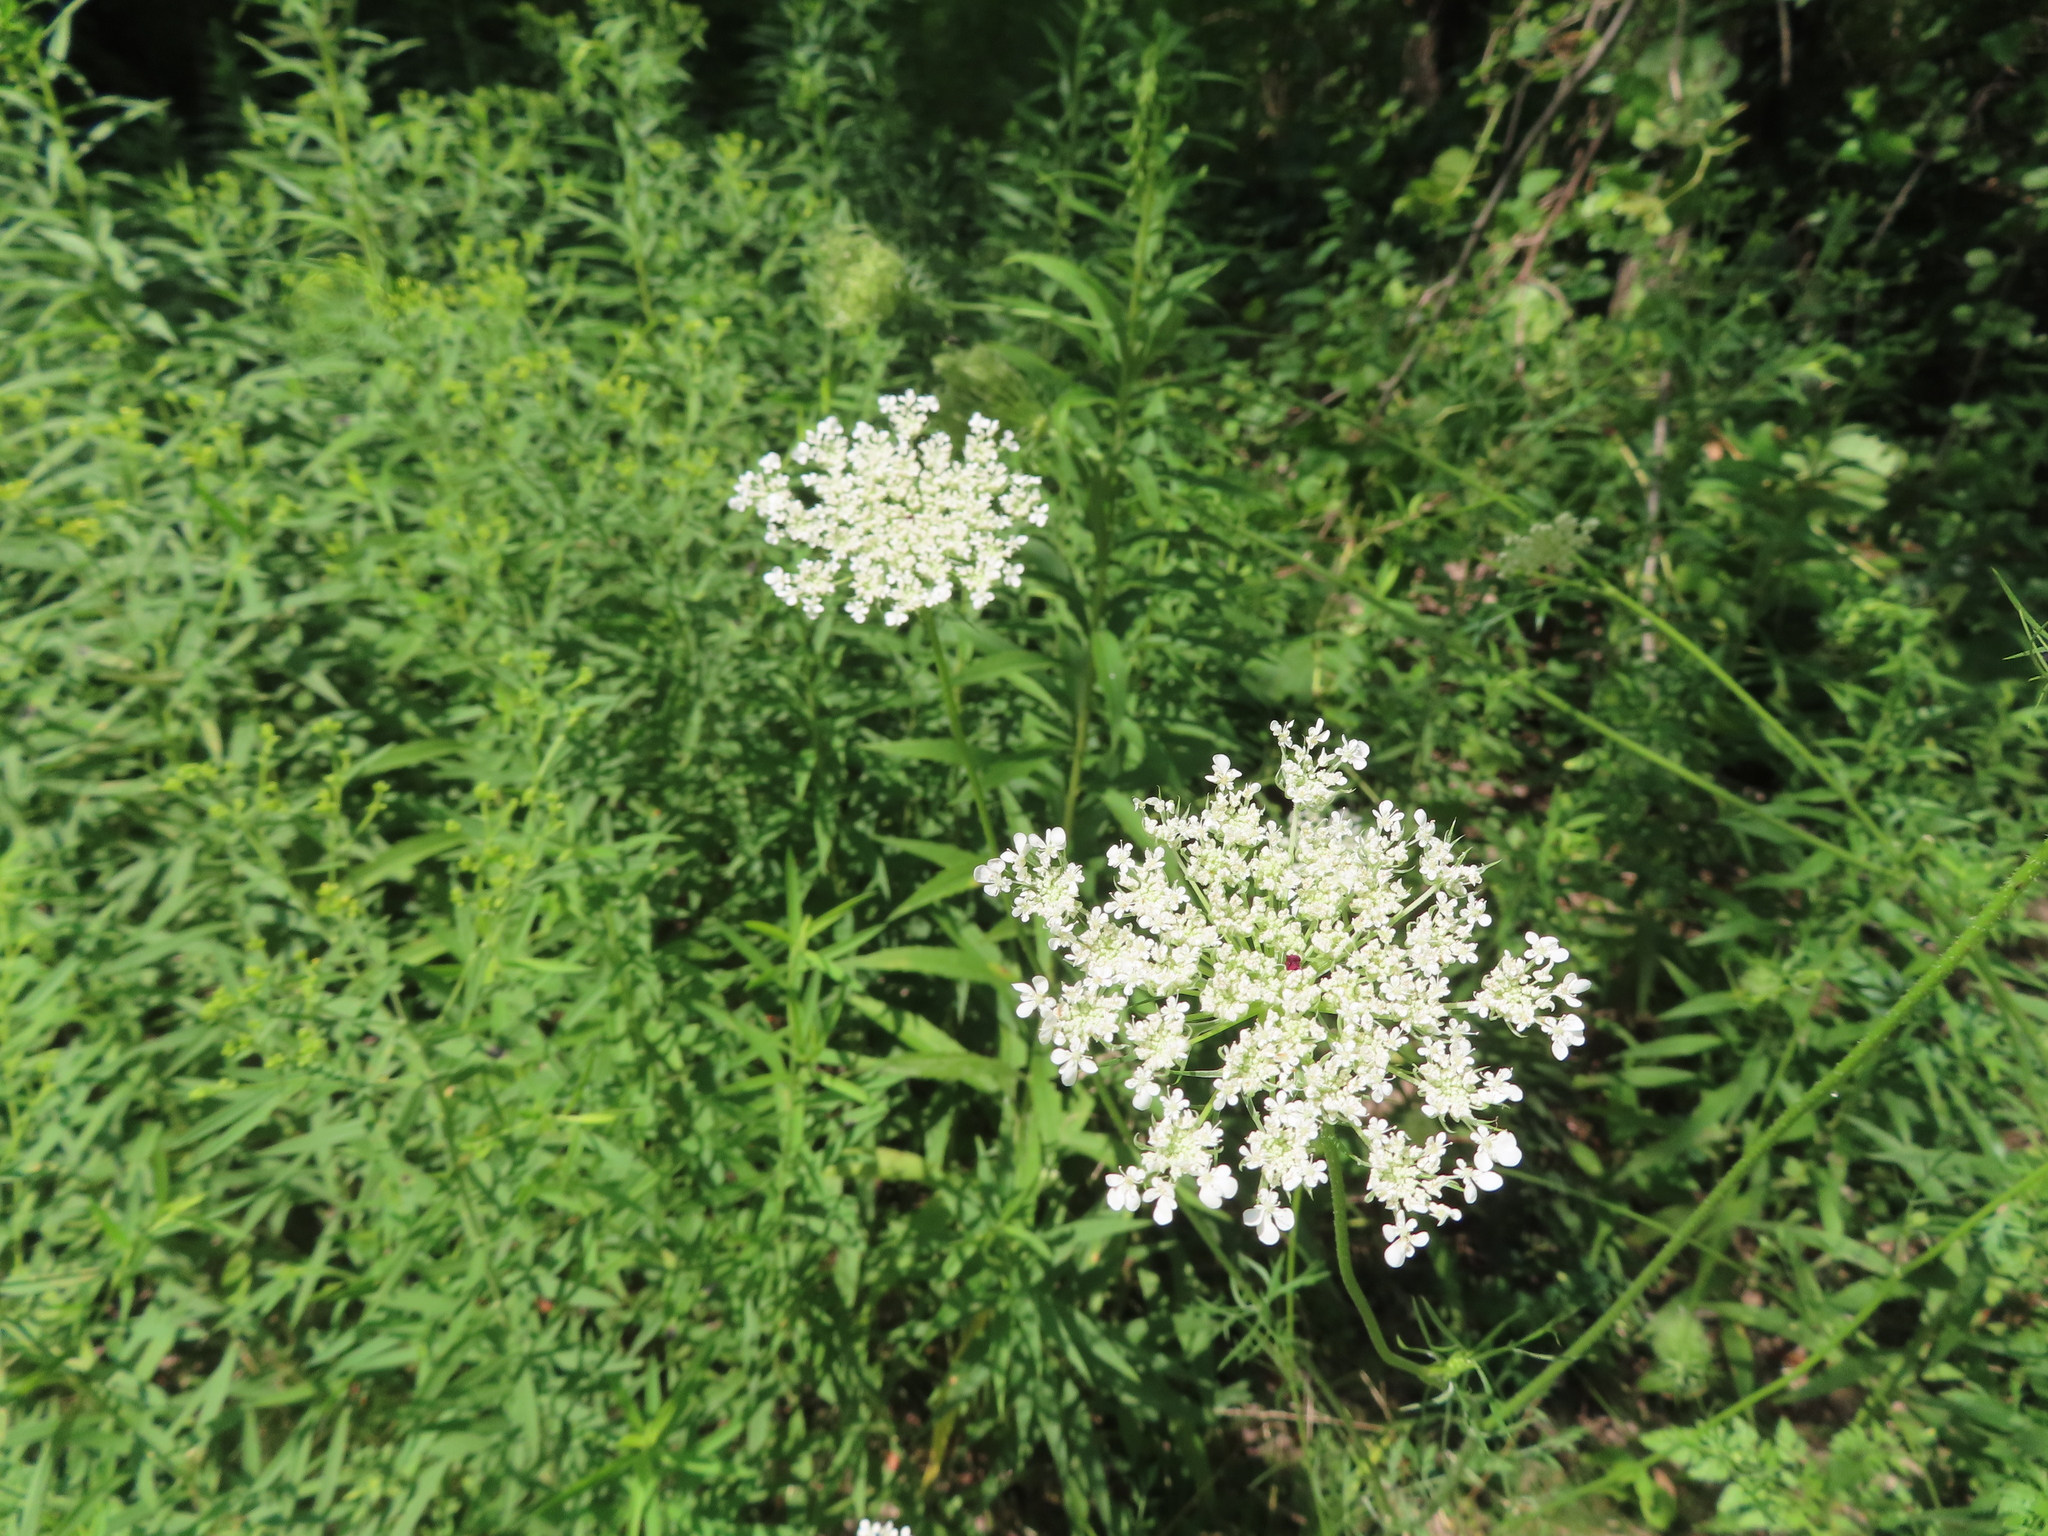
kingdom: Plantae
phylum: Tracheophyta
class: Magnoliopsida
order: Apiales
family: Apiaceae
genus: Daucus
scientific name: Daucus carota
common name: Wild carrot
